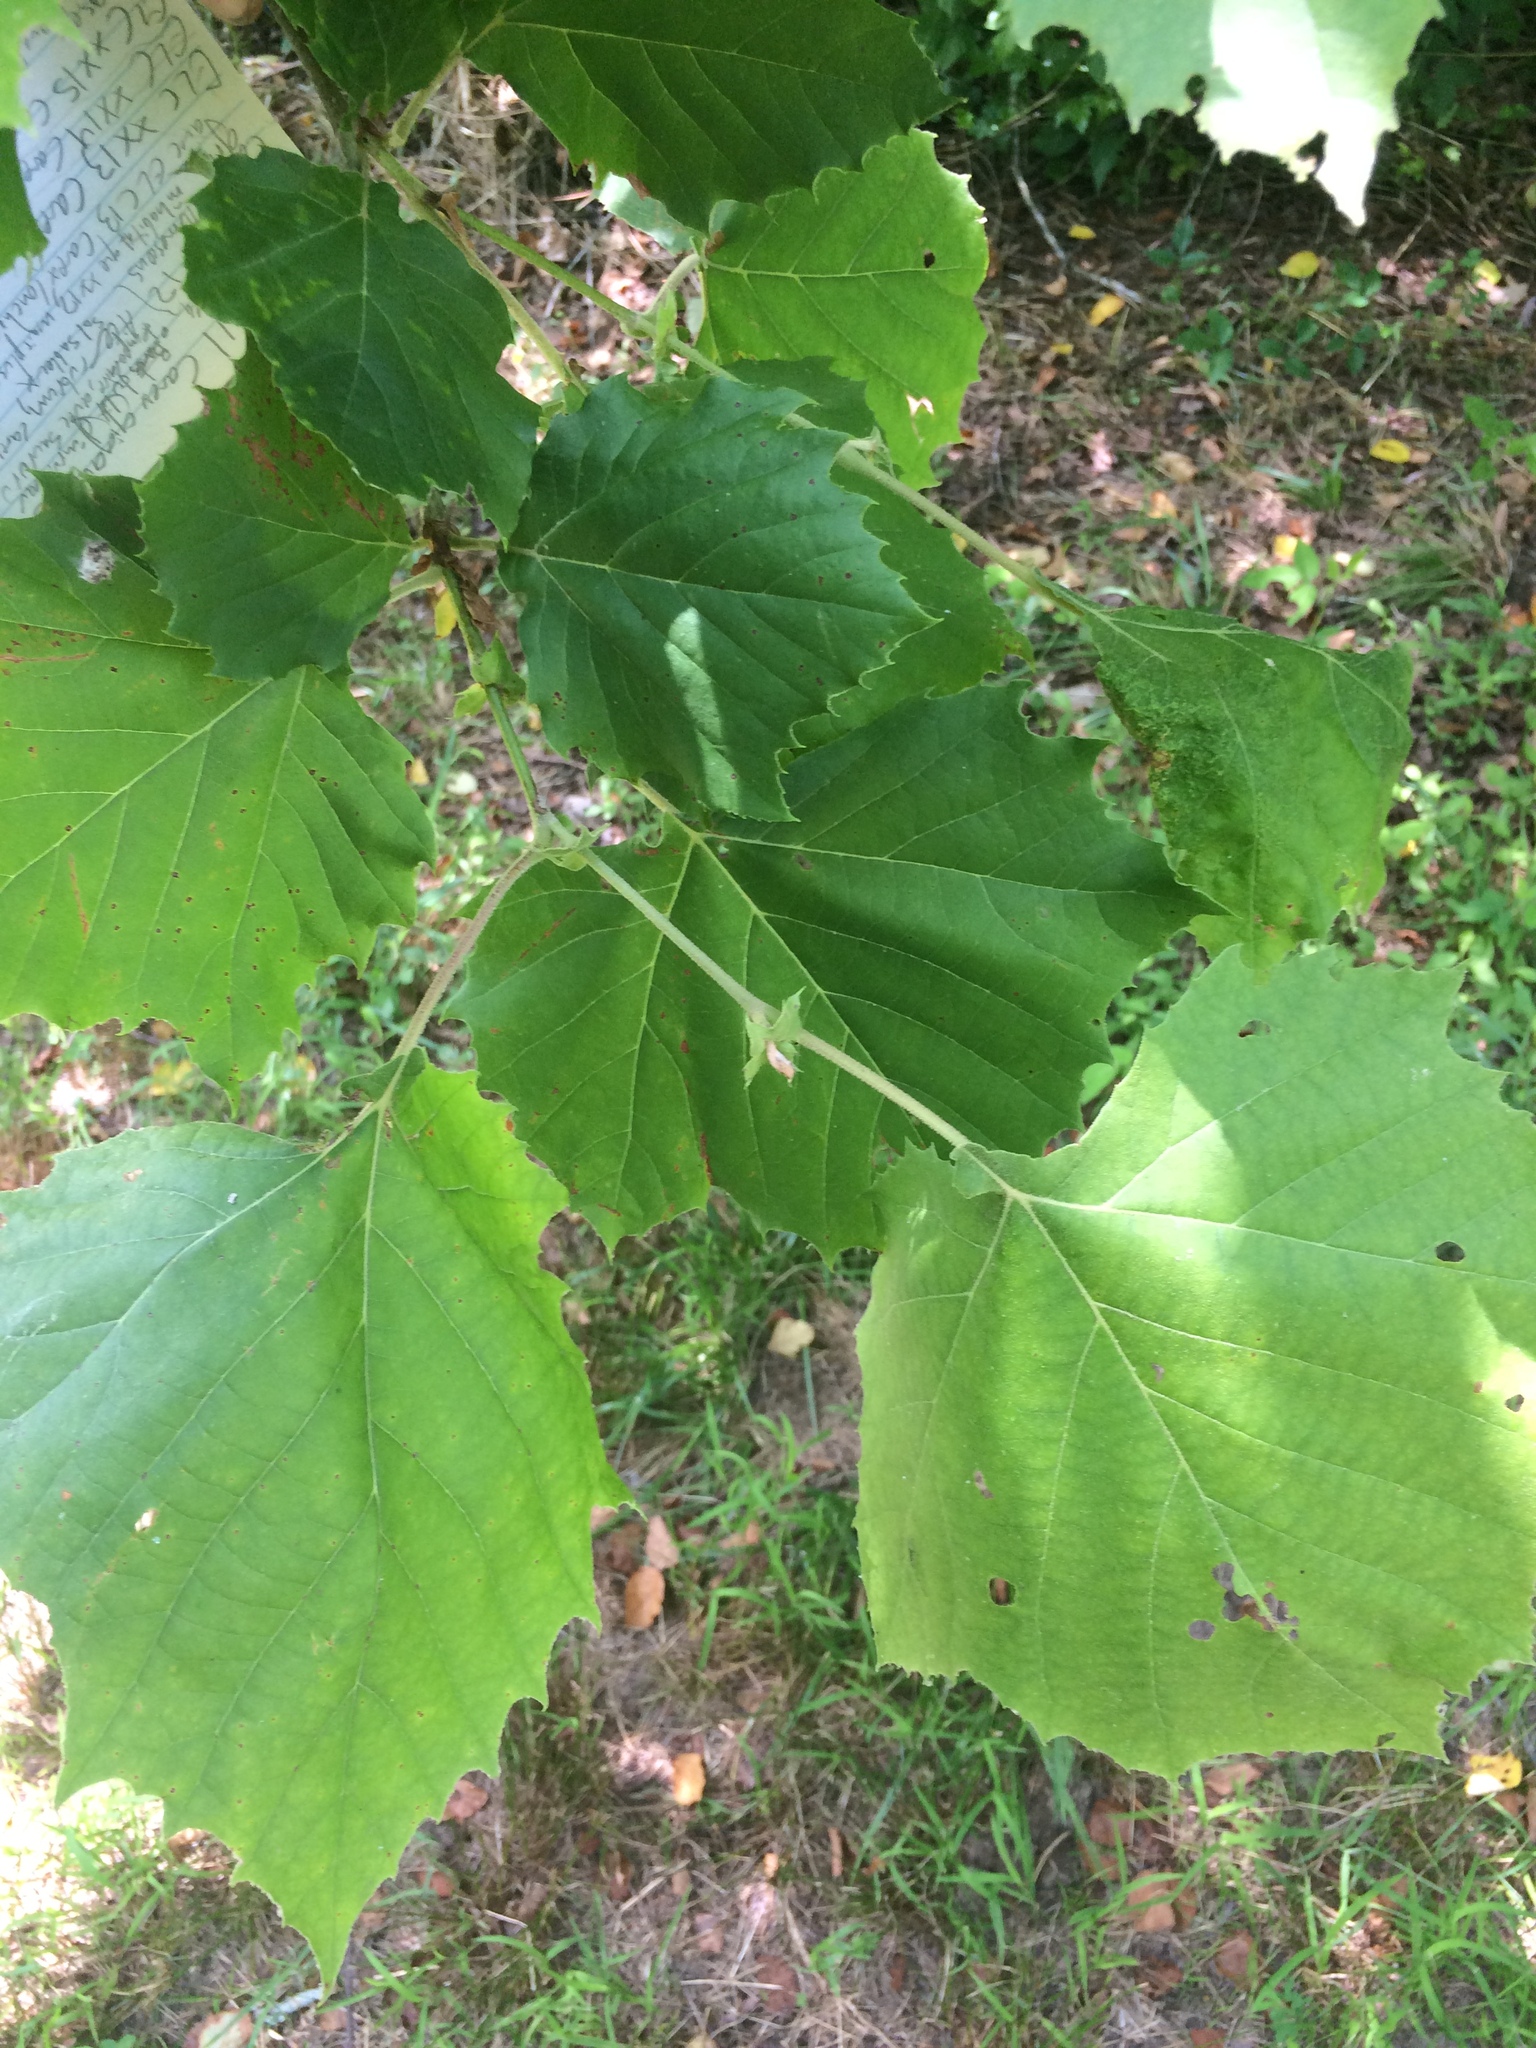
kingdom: Plantae
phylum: Tracheophyta
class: Magnoliopsida
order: Proteales
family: Platanaceae
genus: Platanus
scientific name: Platanus occidentalis
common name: American sycamore
